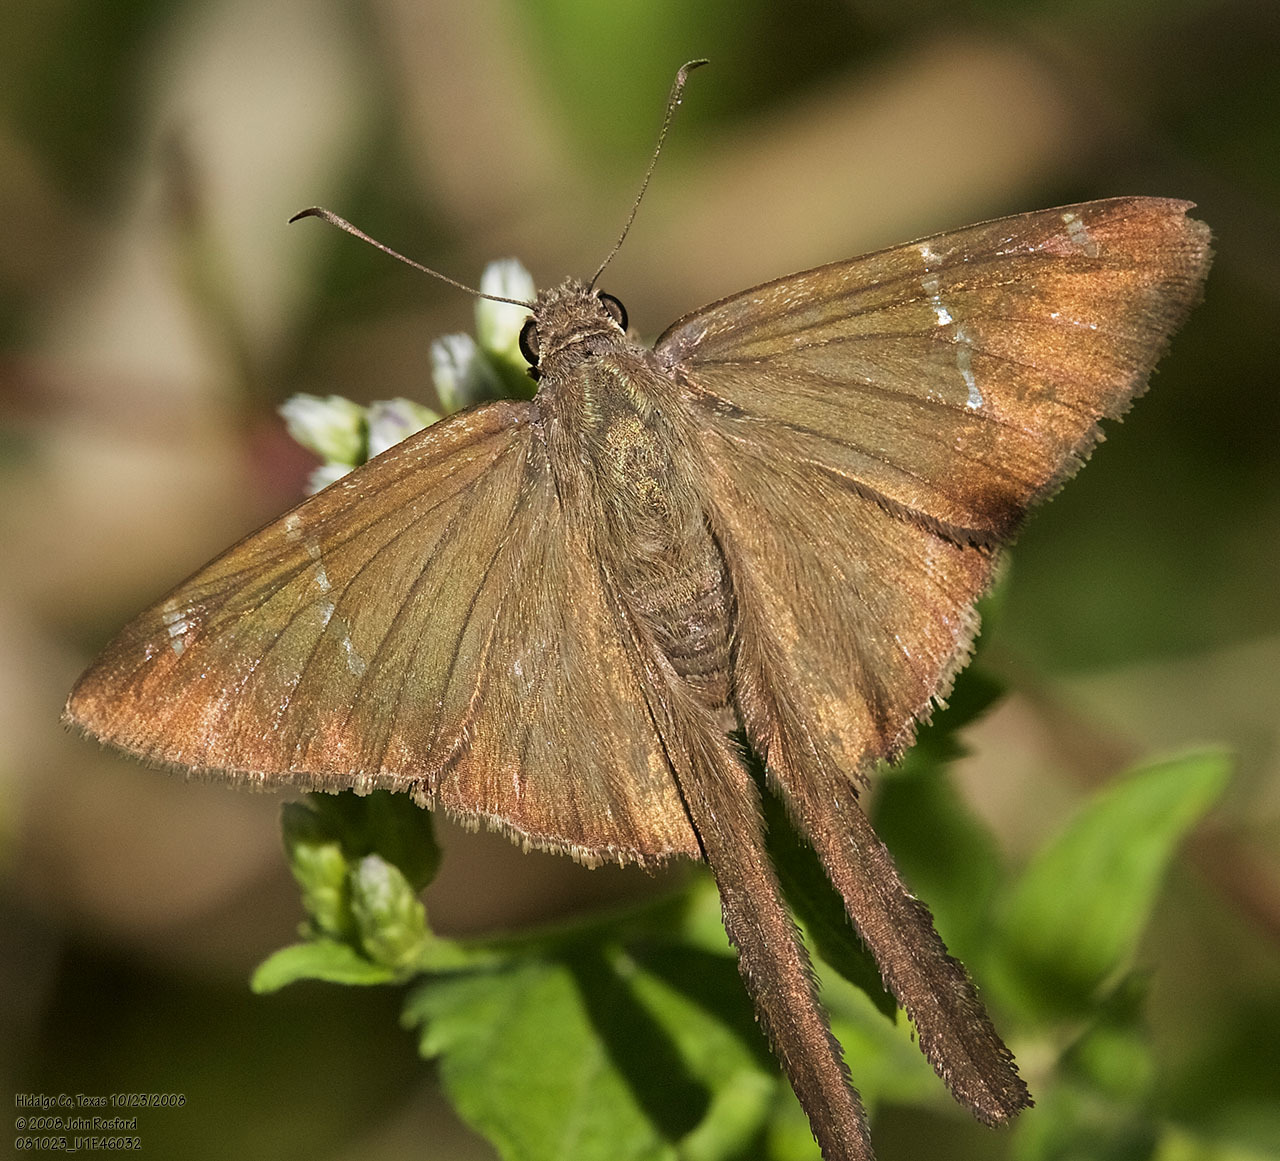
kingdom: Animalia
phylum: Arthropoda
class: Insecta
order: Lepidoptera
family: Hesperiidae
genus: Urbanus
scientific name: Urbanus procne
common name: Brown longtail
